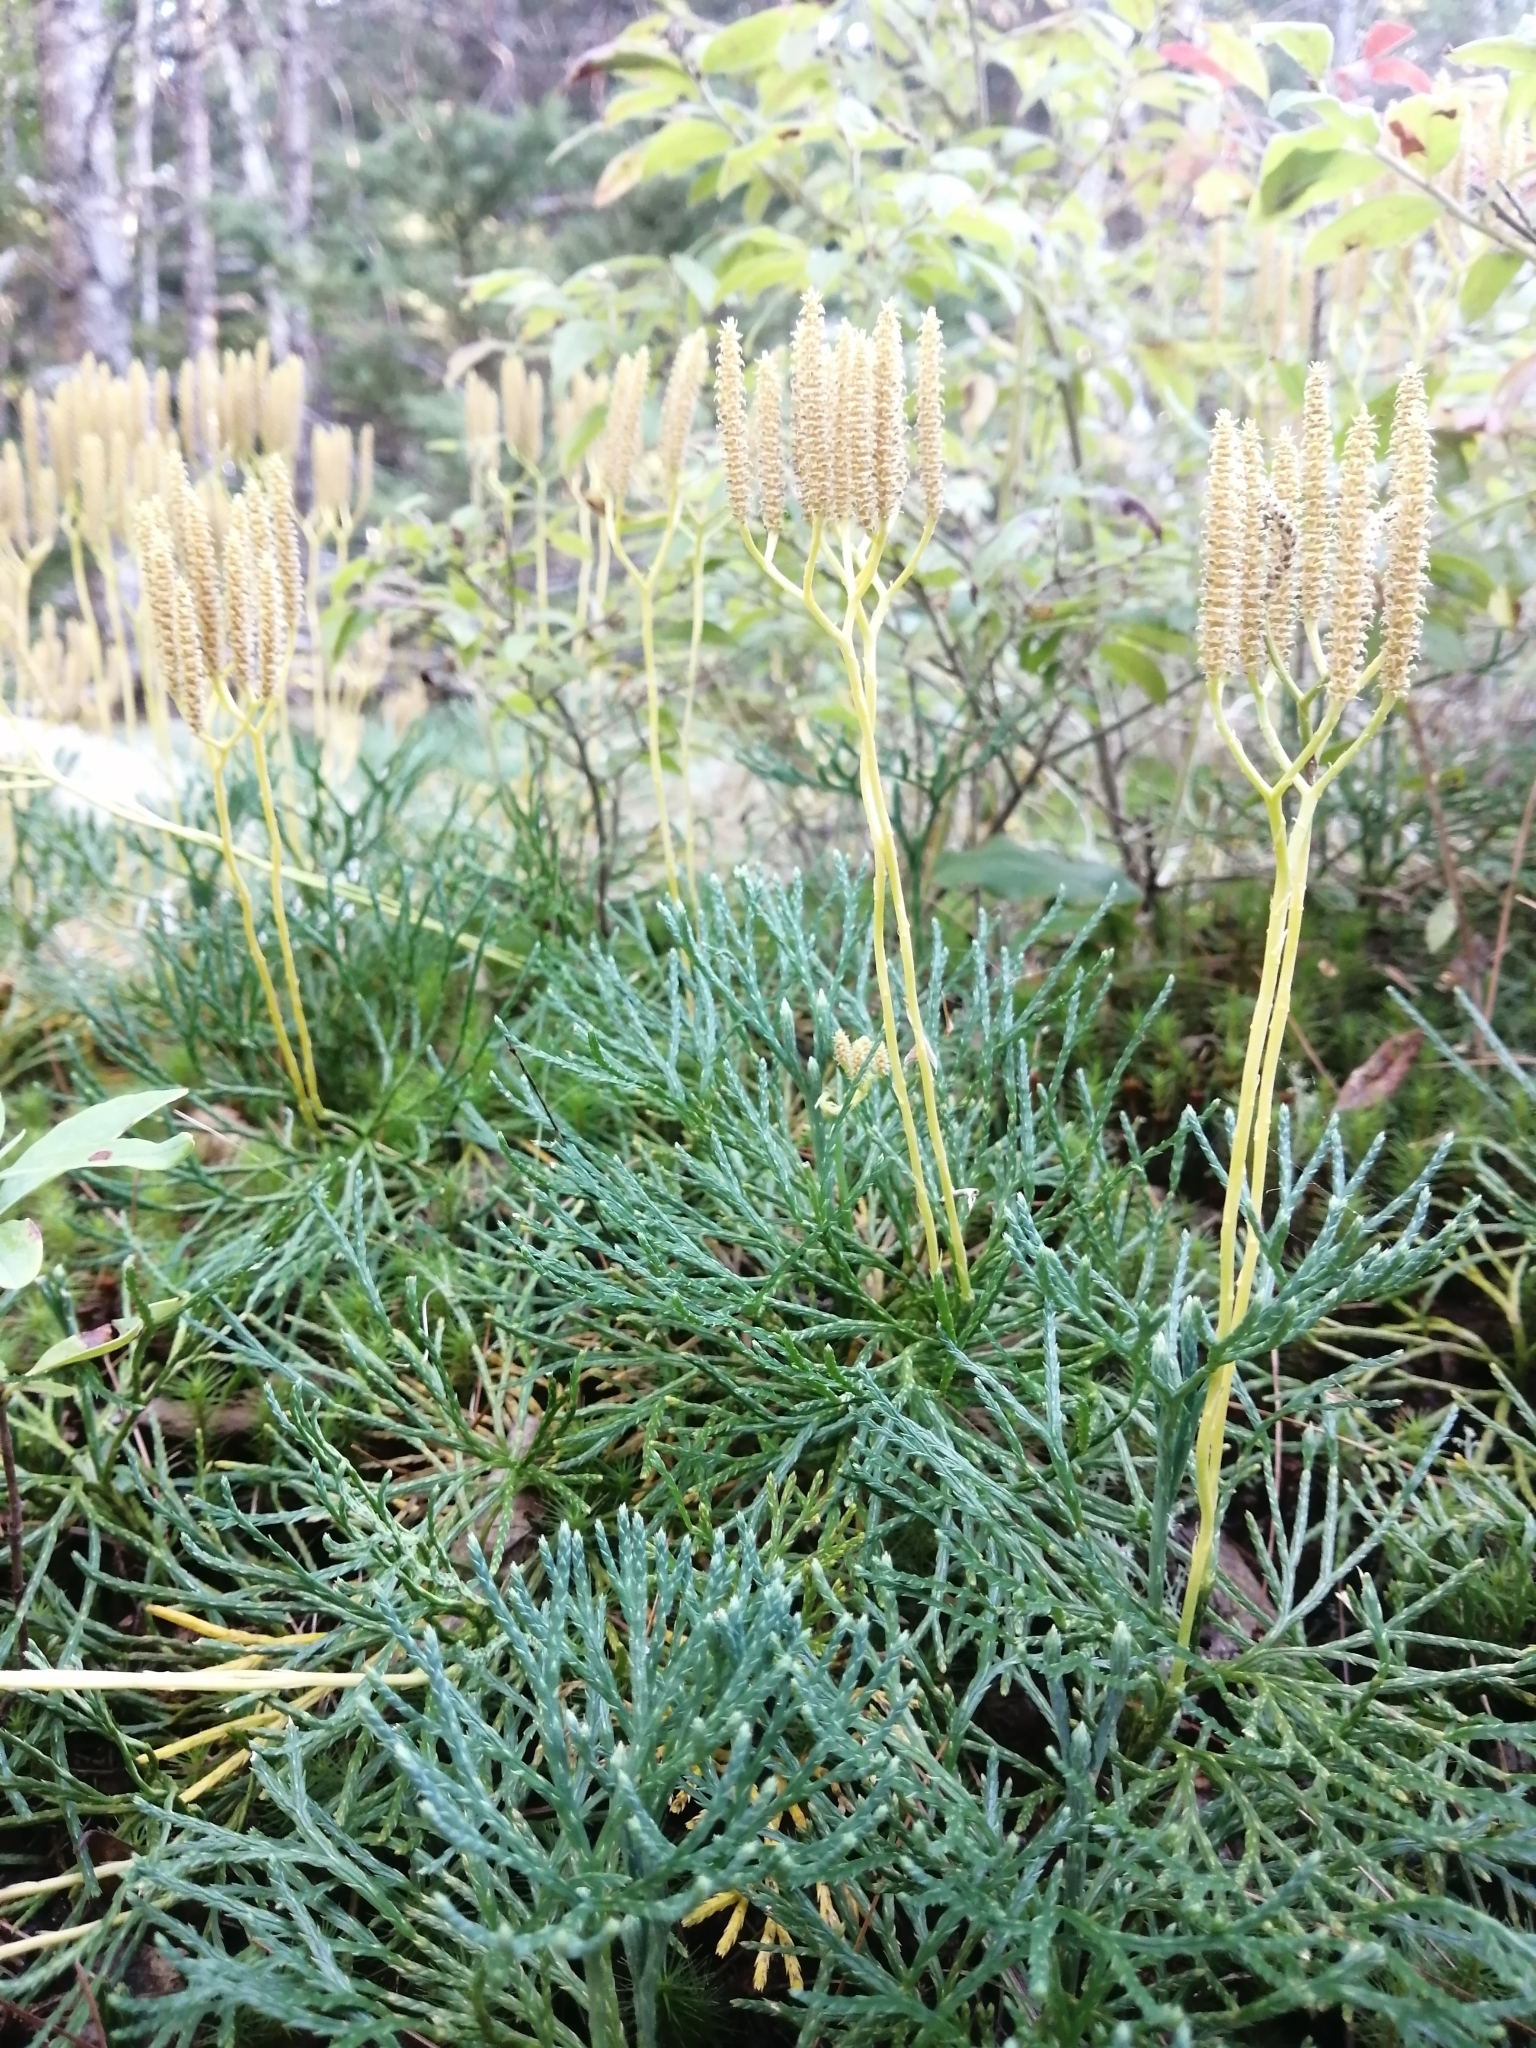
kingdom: Plantae
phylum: Tracheophyta
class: Lycopodiopsida
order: Lycopodiales
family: Lycopodiaceae
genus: Diphasiastrum
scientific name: Diphasiastrum tristachyum
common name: Blue ground-cedar
